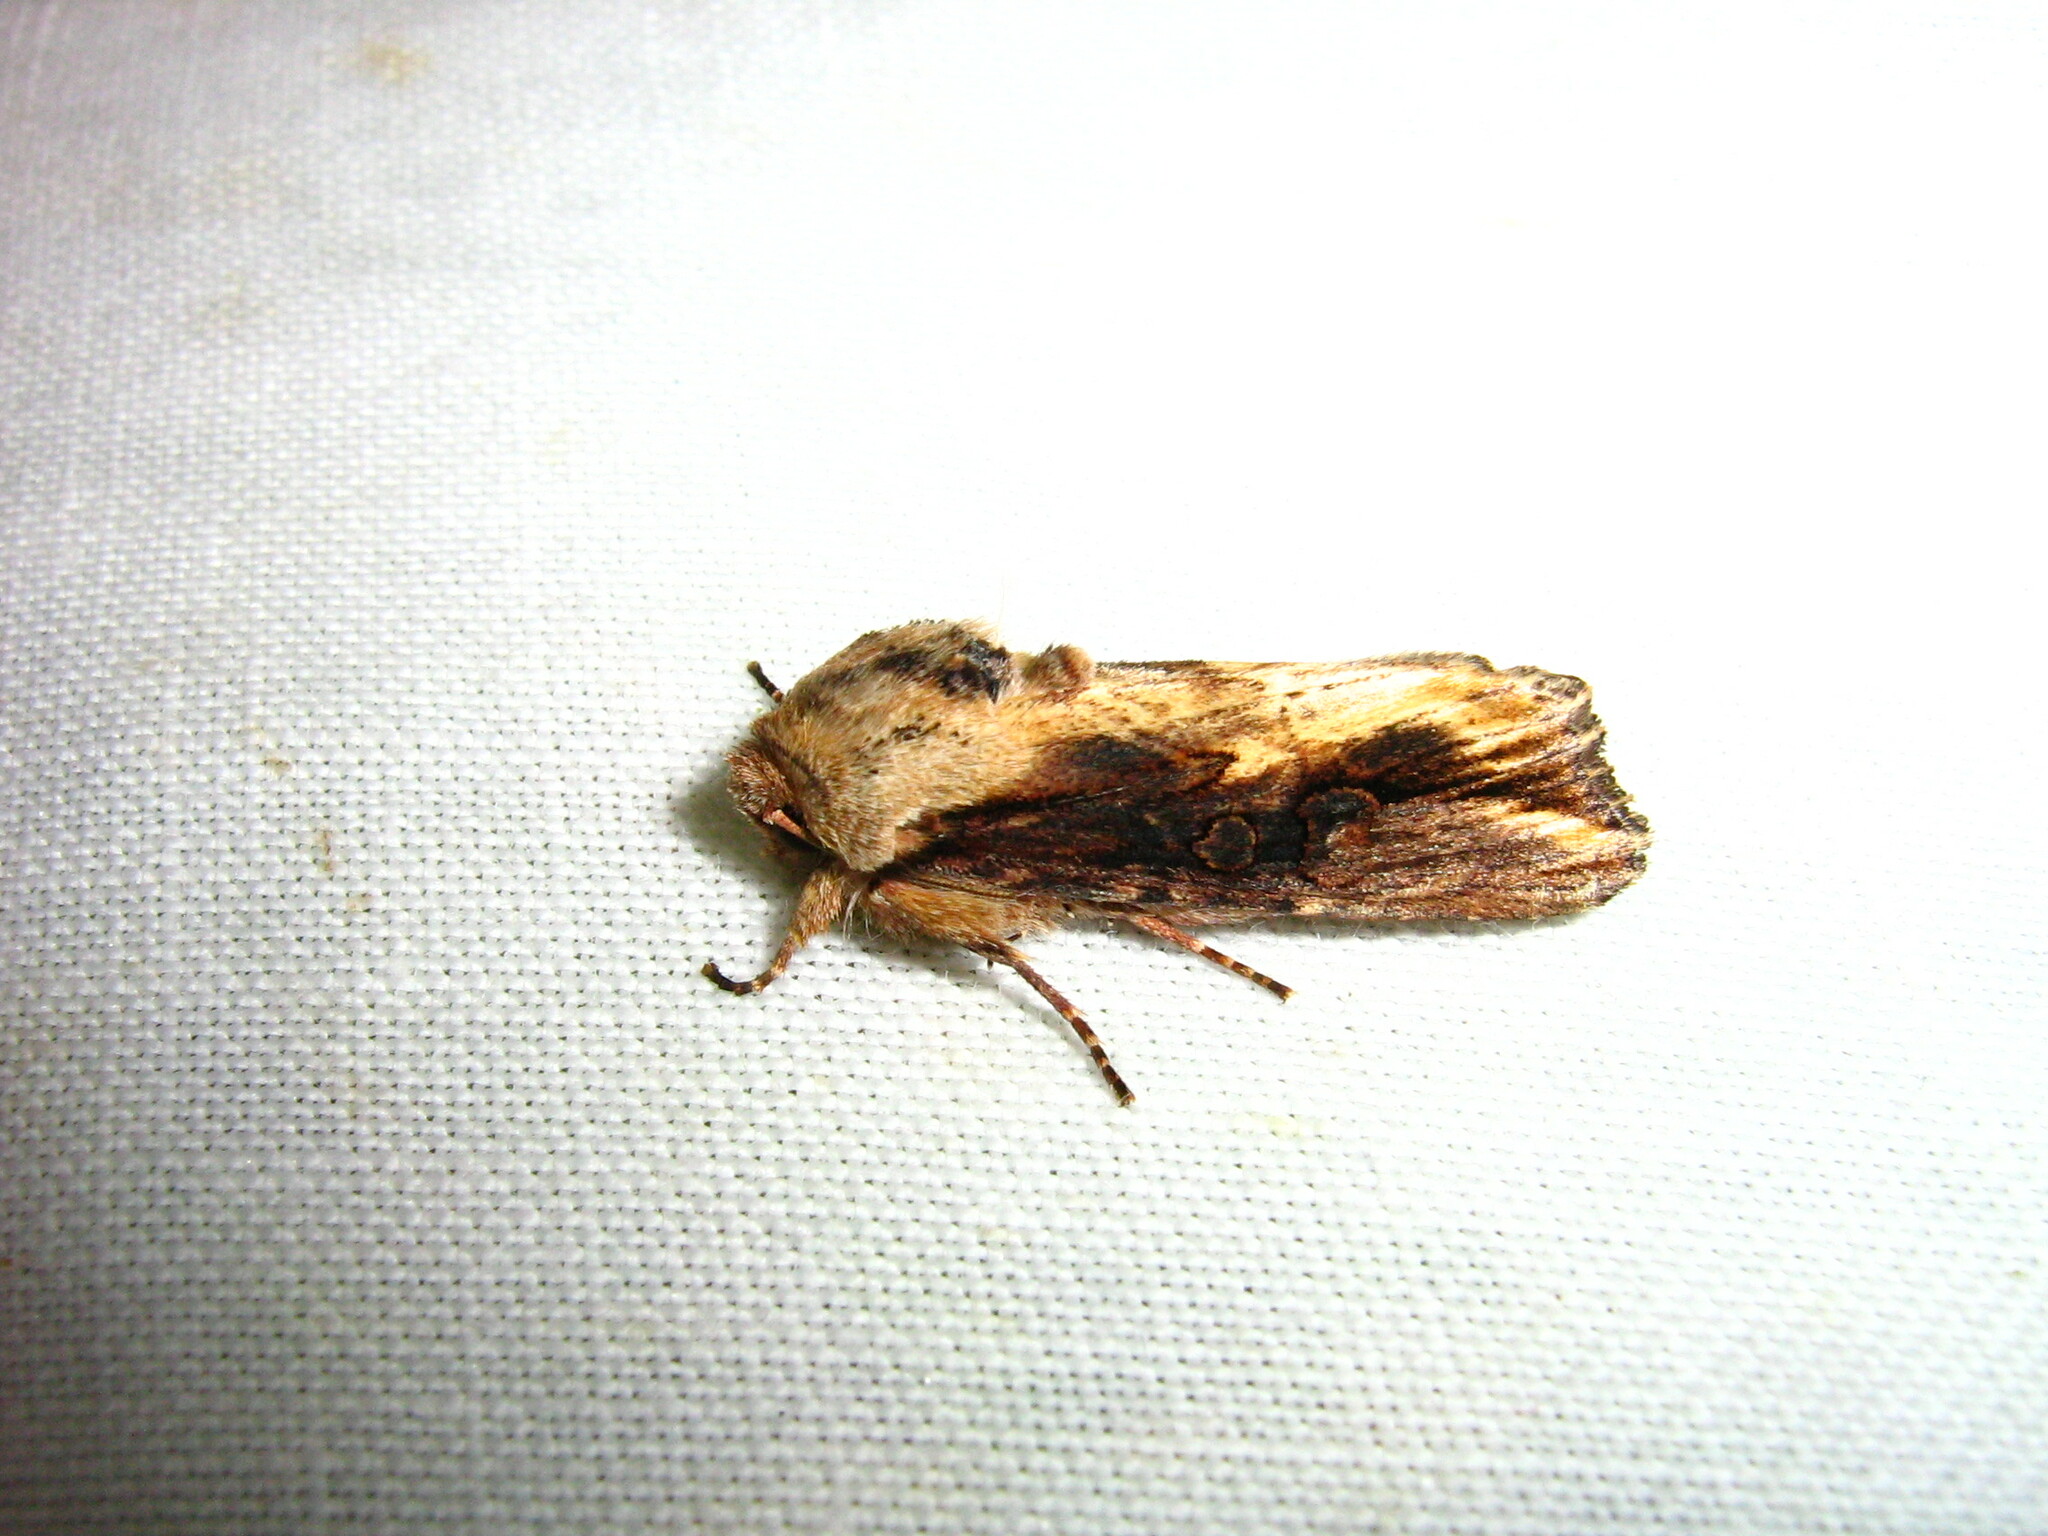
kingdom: Animalia
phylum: Arthropoda
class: Insecta
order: Lepidoptera
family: Noctuidae
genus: Egira
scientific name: Egira conspicillaris
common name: Silver cloud
